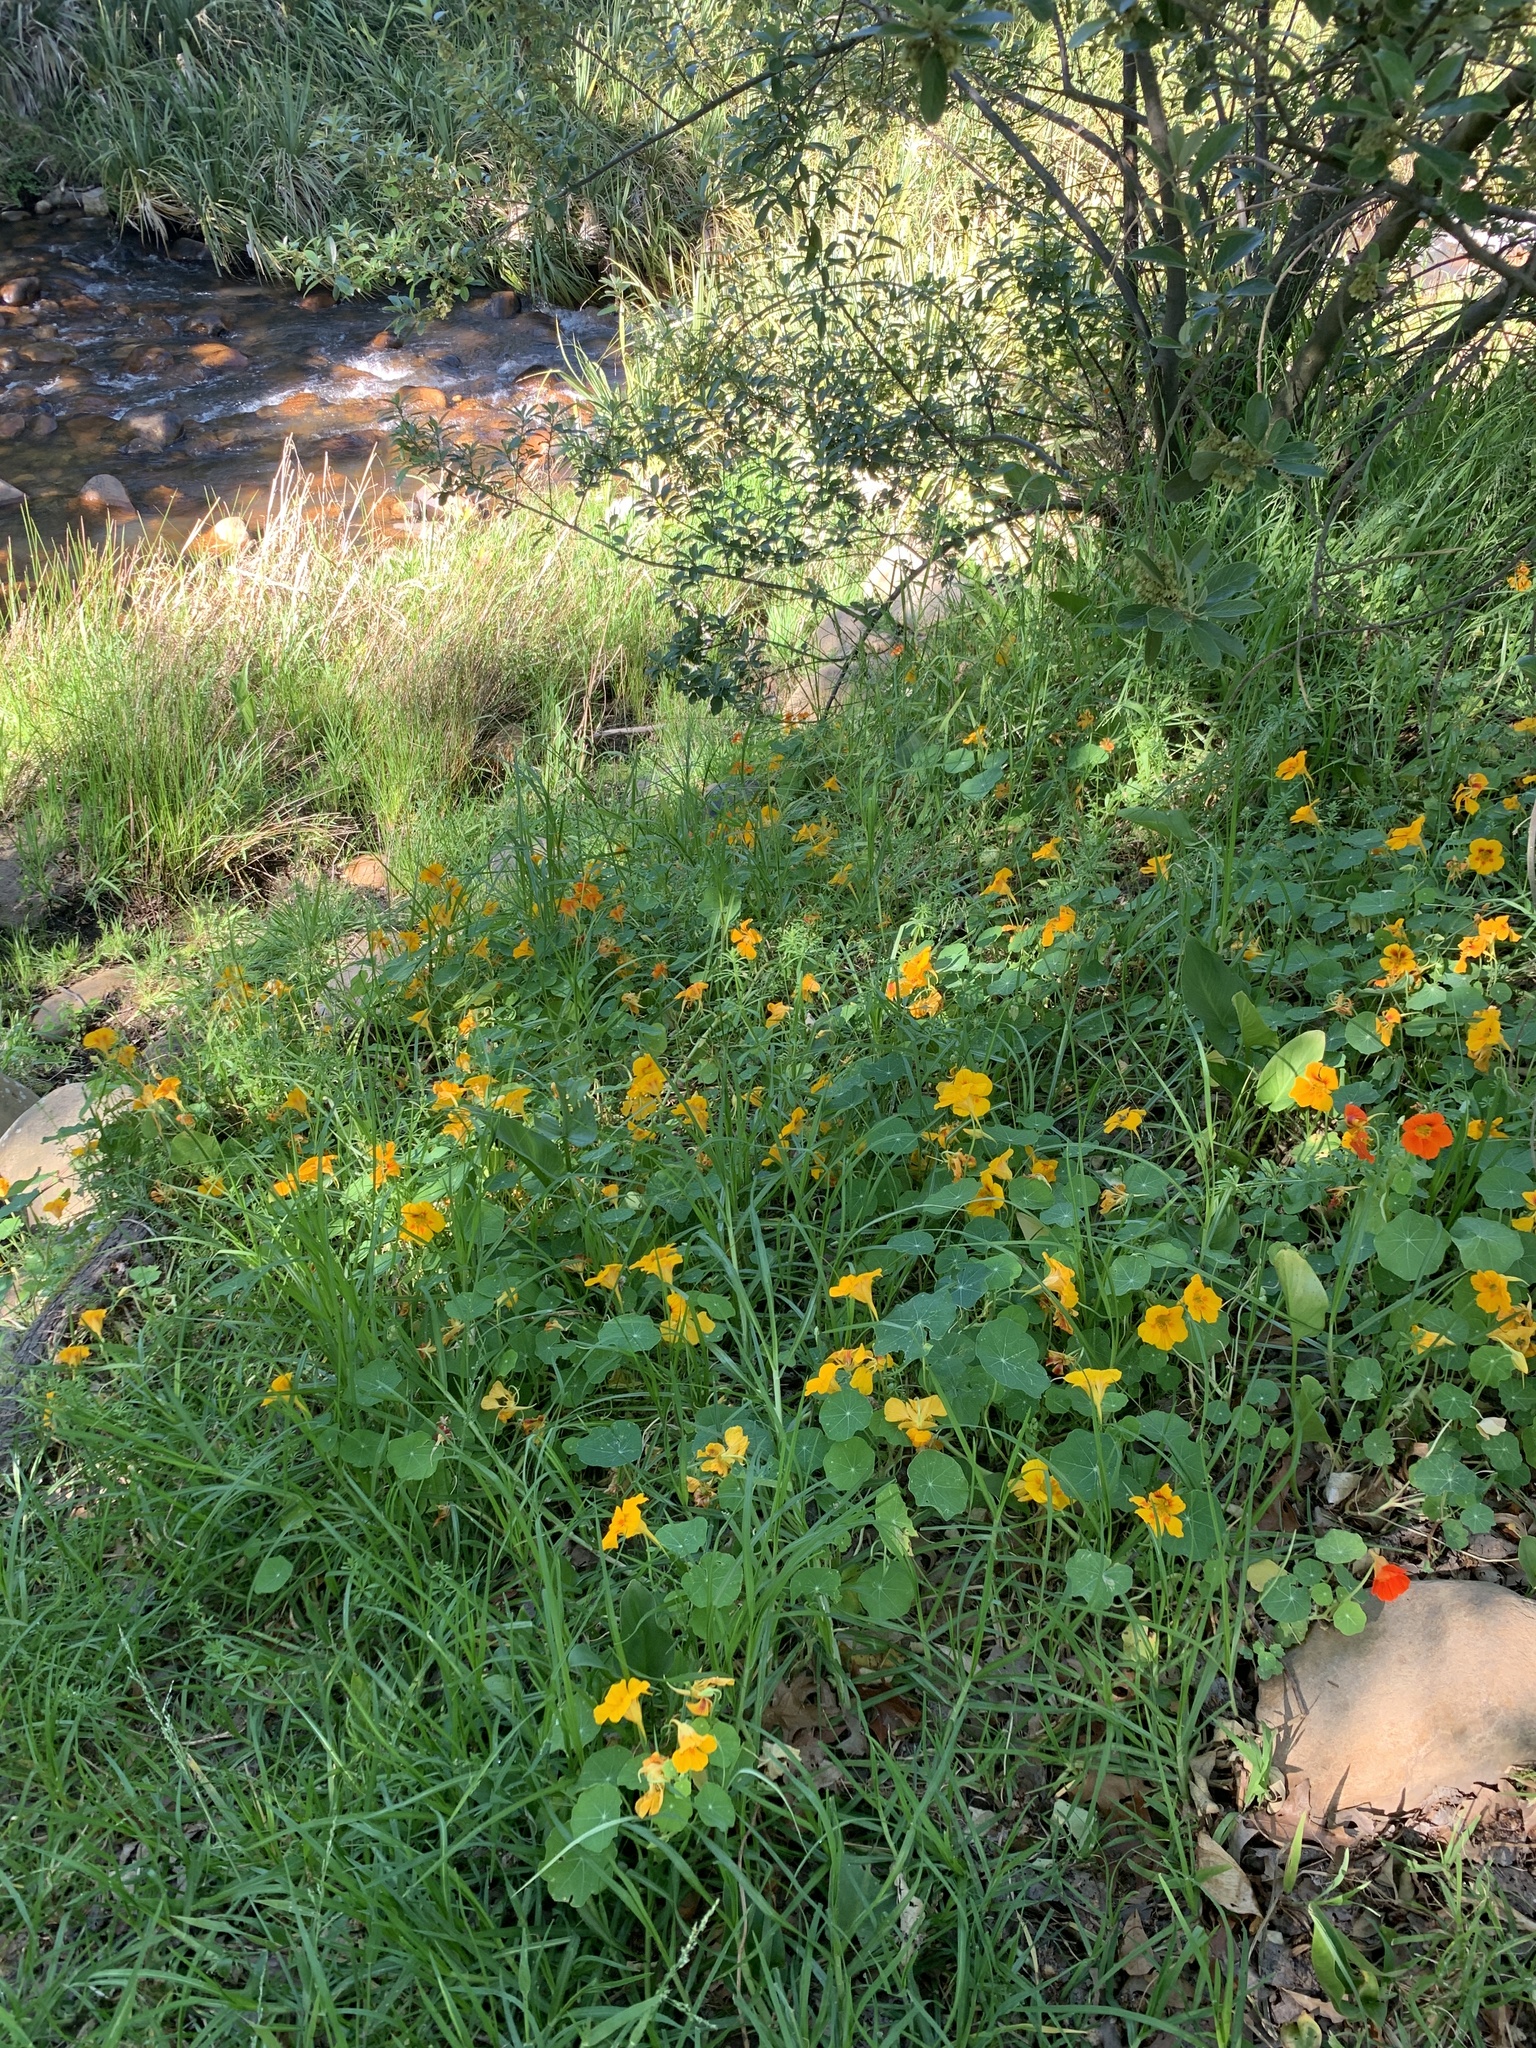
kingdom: Plantae
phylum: Tracheophyta
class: Magnoliopsida
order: Brassicales
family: Tropaeolaceae
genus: Tropaeolum
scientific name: Tropaeolum majus
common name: Nasturtium
